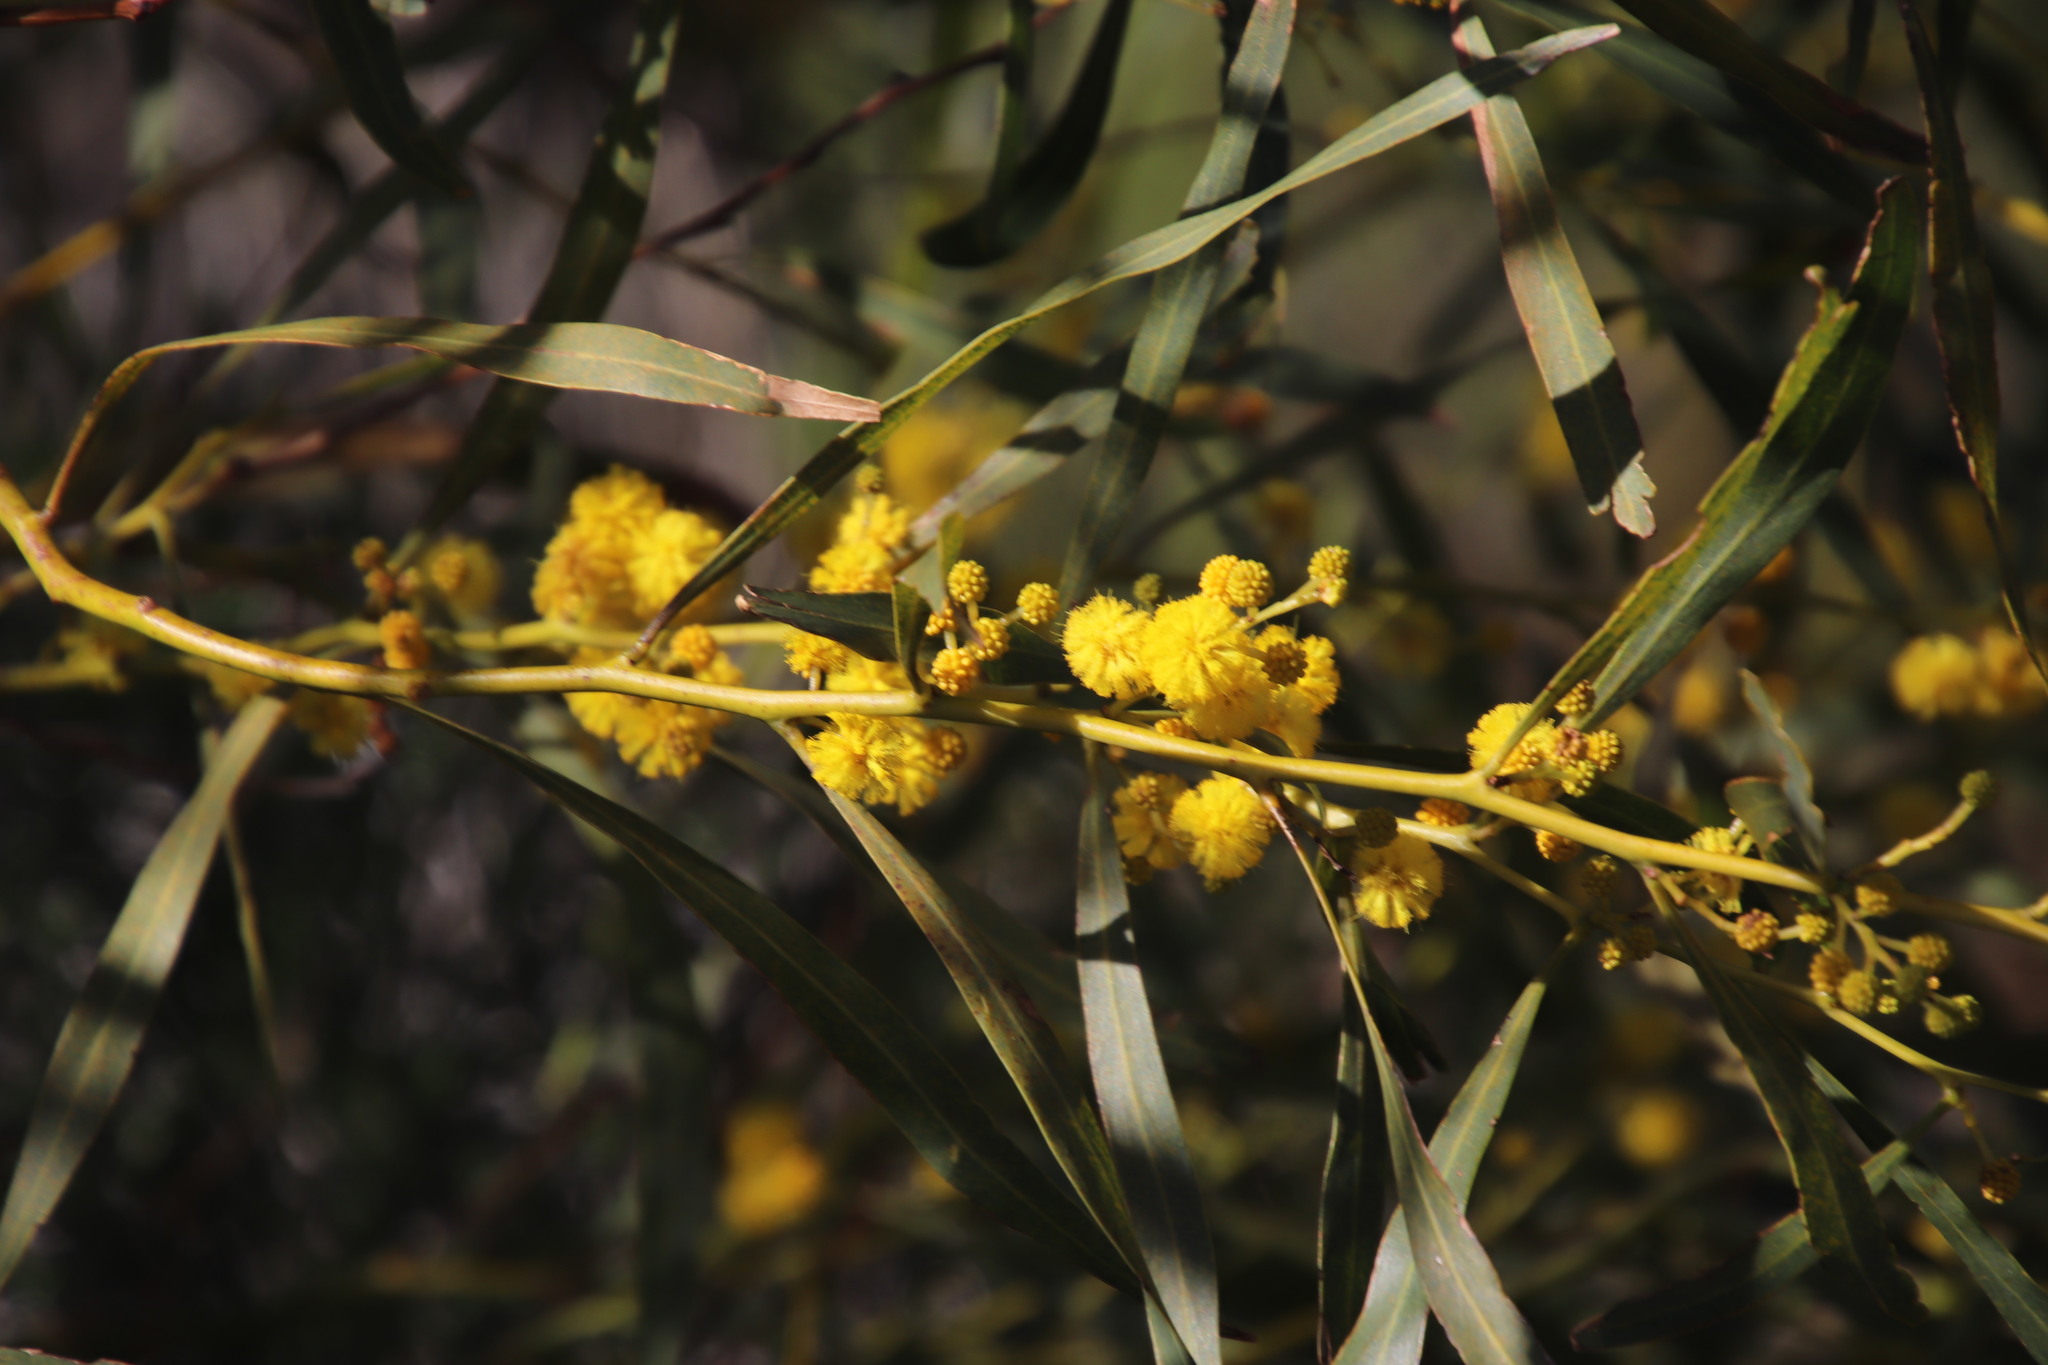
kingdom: Plantae
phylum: Tracheophyta
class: Magnoliopsida
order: Fabales
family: Fabaceae
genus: Acacia
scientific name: Acacia saligna
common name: Orange wattle
